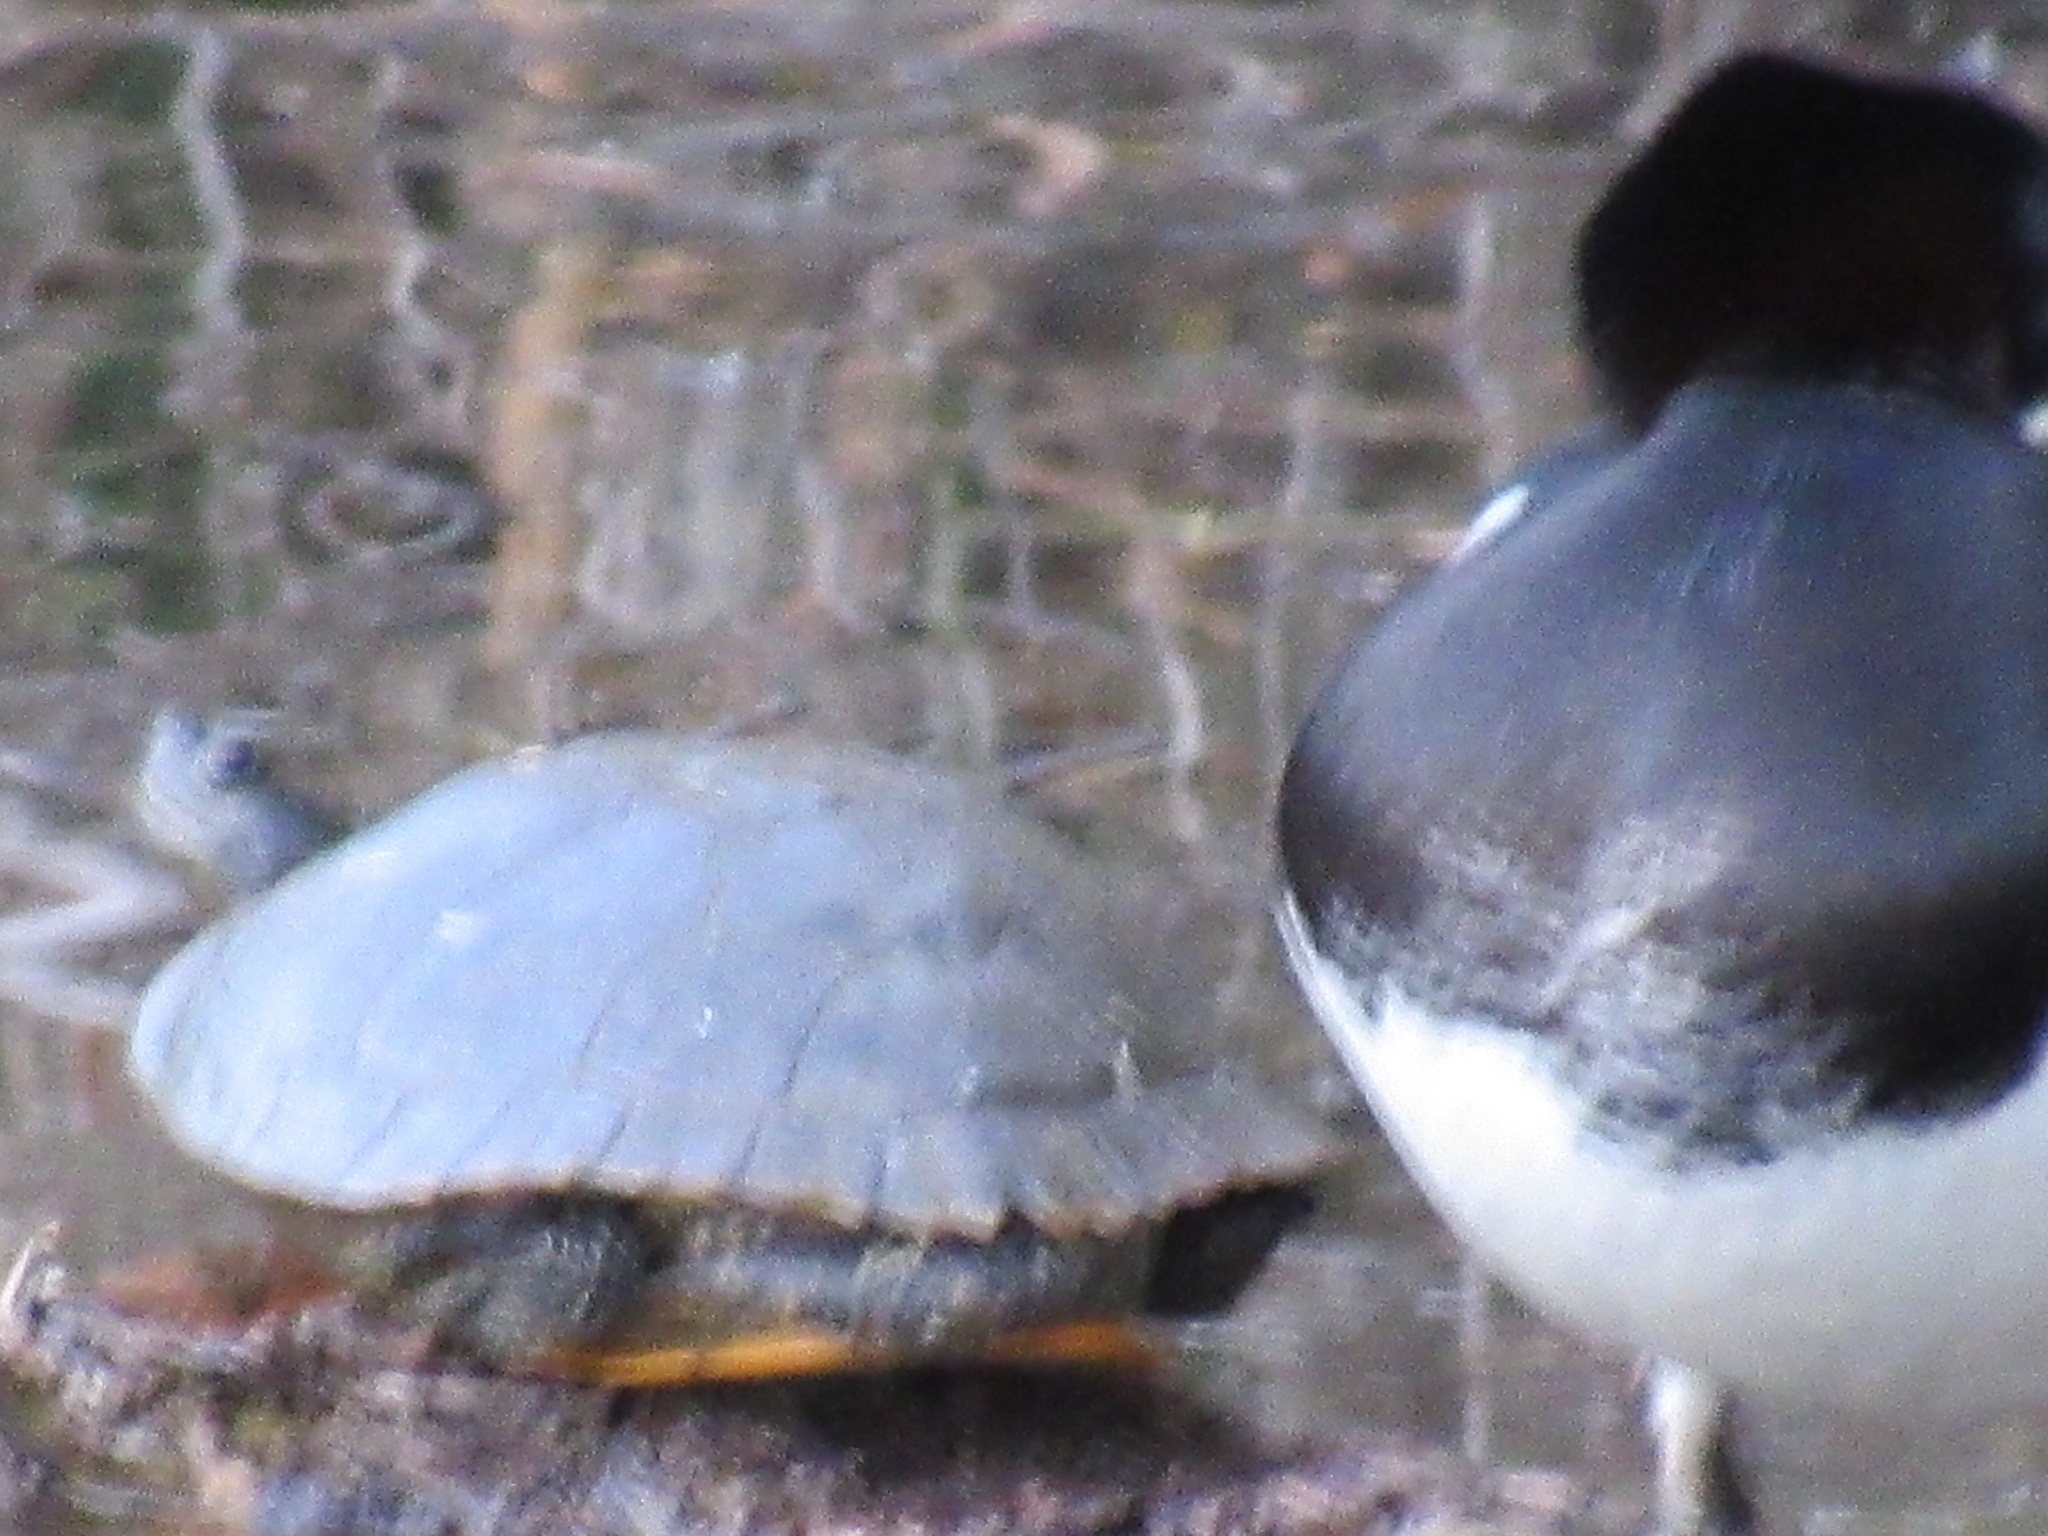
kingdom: Animalia
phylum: Chordata
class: Testudines
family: Emydidae
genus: Trachemys
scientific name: Trachemys scripta
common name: Slider
